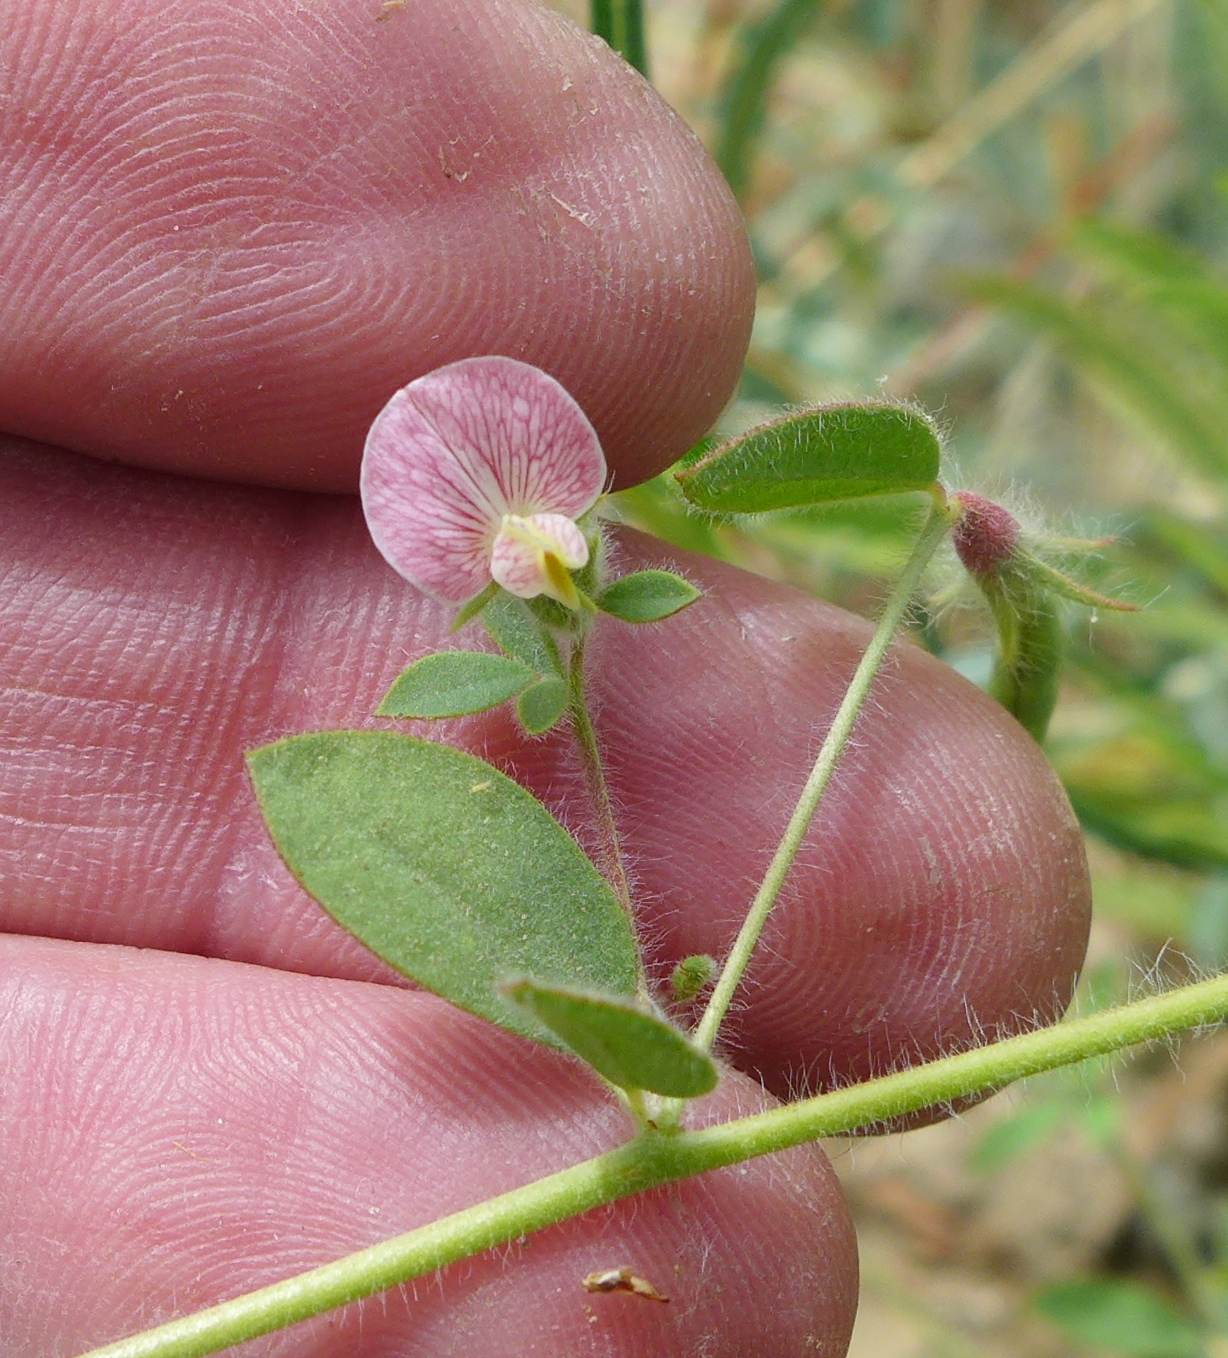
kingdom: Plantae
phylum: Tracheophyta
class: Magnoliopsida
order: Fabales
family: Fabaceae
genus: Acmispon
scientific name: Acmispon americanus
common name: American bird's-foot trefoil
